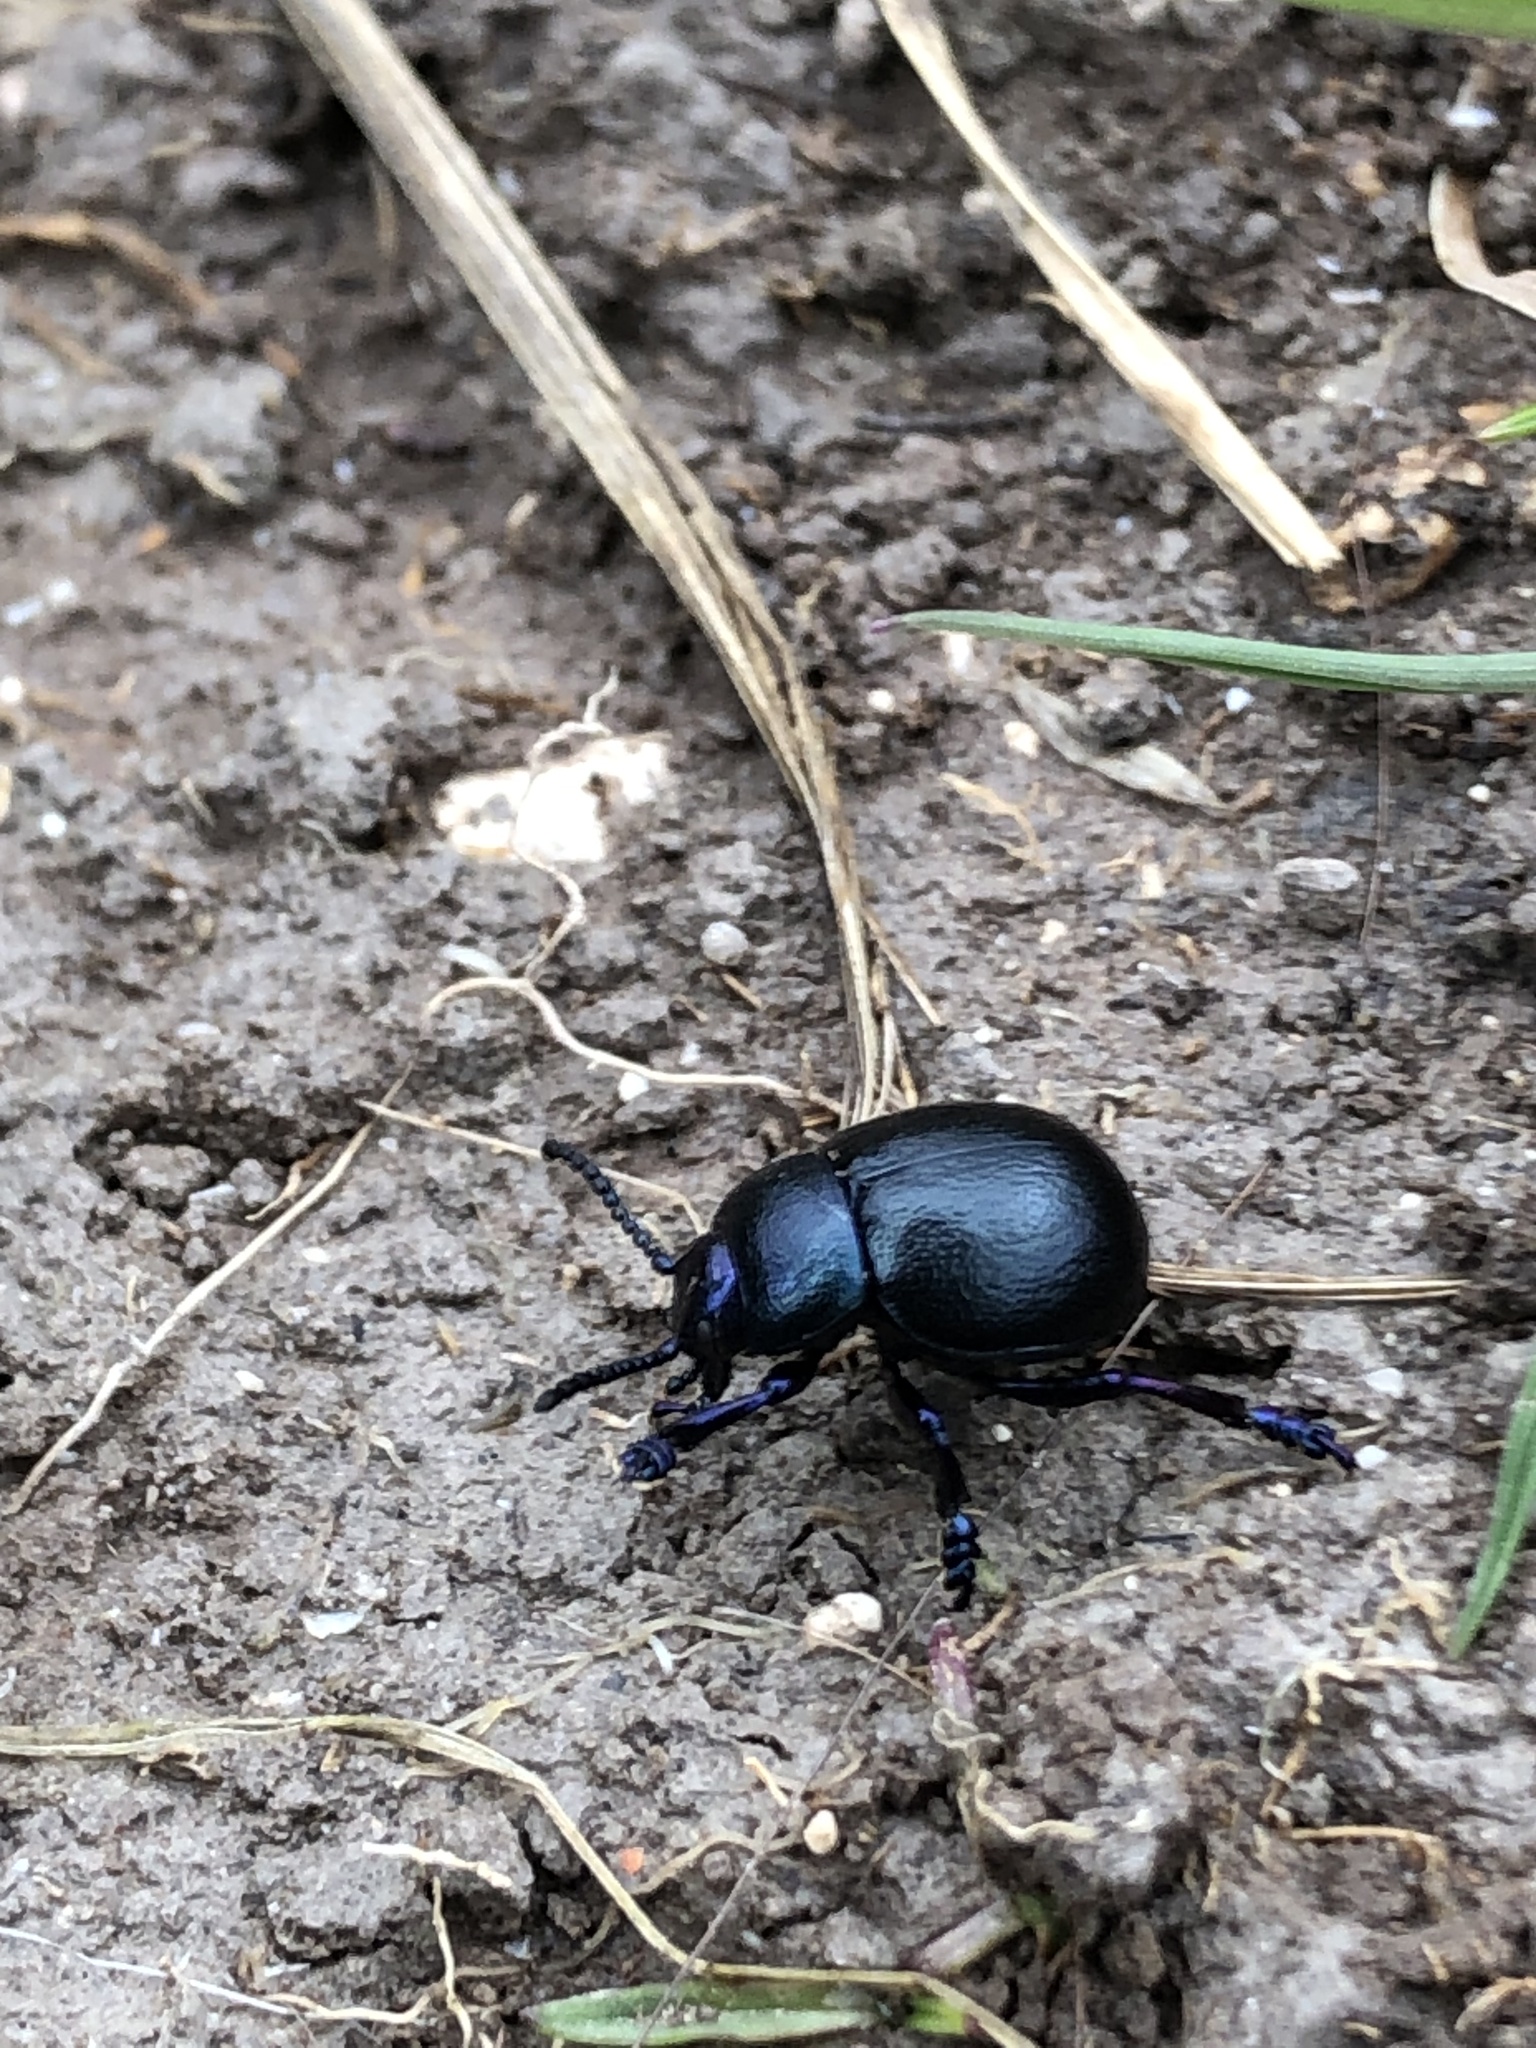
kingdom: Animalia
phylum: Arthropoda
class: Insecta
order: Coleoptera
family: Chrysomelidae
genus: Timarcha
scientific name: Timarcha goettingensis
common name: Small bloody-nosed beetle
